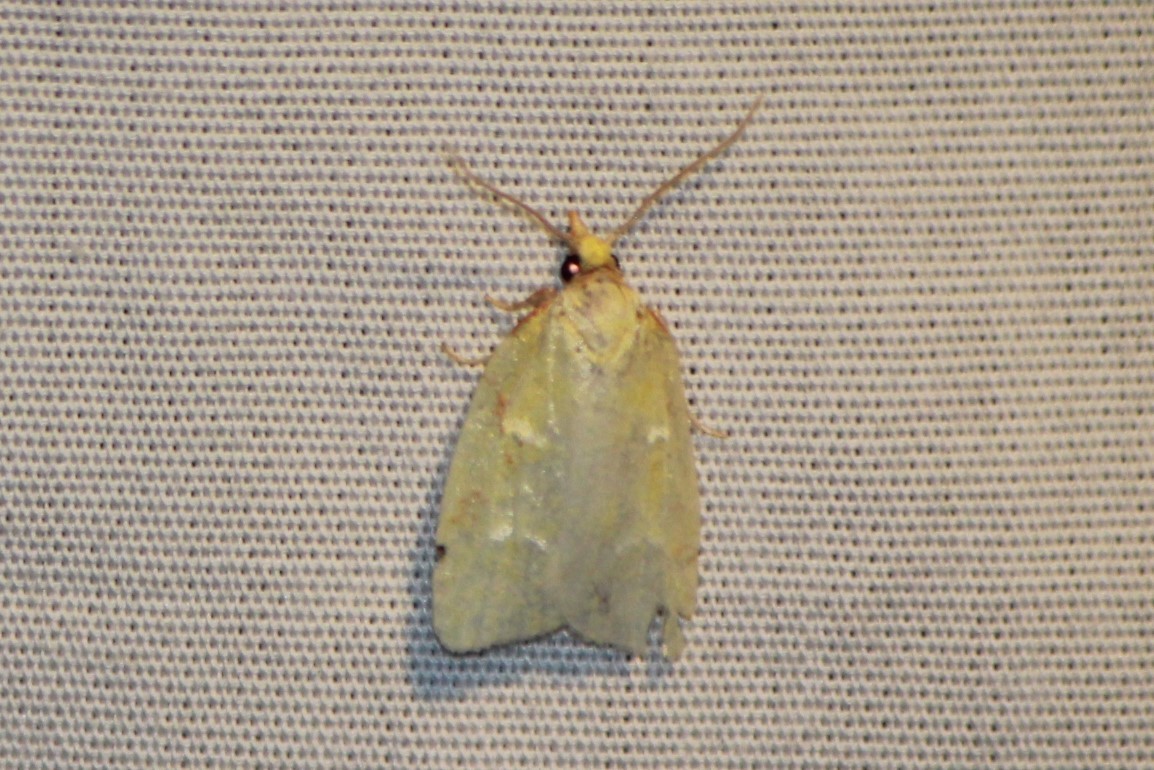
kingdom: Animalia
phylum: Arthropoda
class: Insecta
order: Lepidoptera
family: Tortricidae
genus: Cenopis
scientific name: Cenopis pettitana
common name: Maple-basswood leafroller moth
